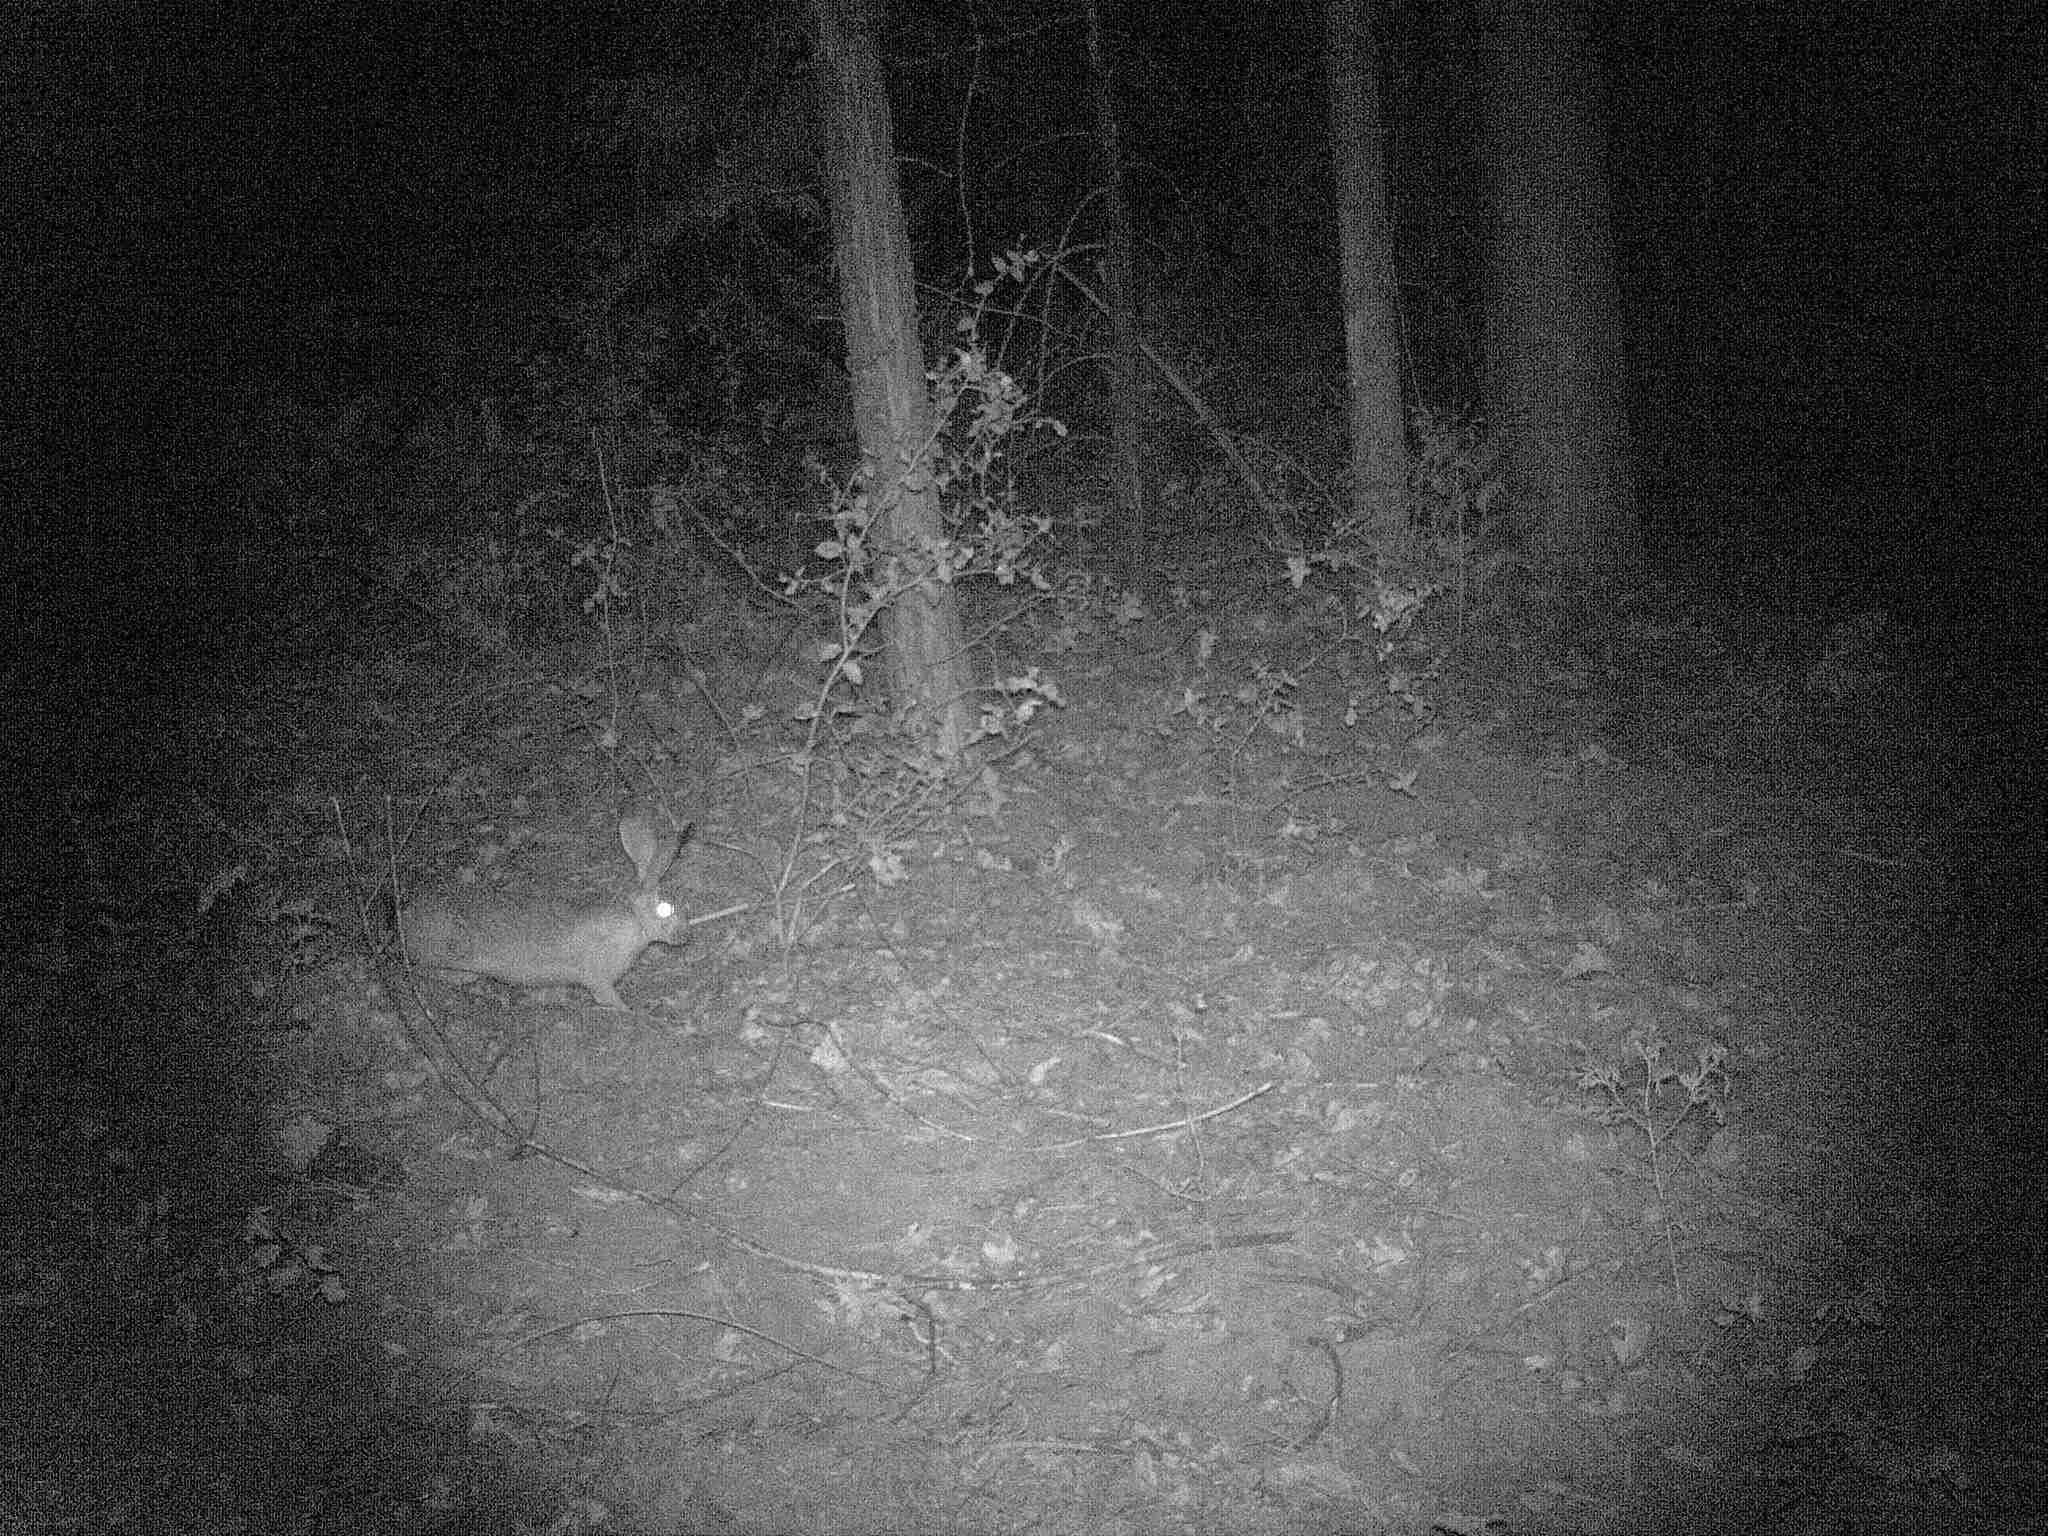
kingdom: Animalia
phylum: Chordata
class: Mammalia
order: Lagomorpha
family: Leporidae
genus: Lepus
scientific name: Lepus californicus
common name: Black-tailed jackrabbit
